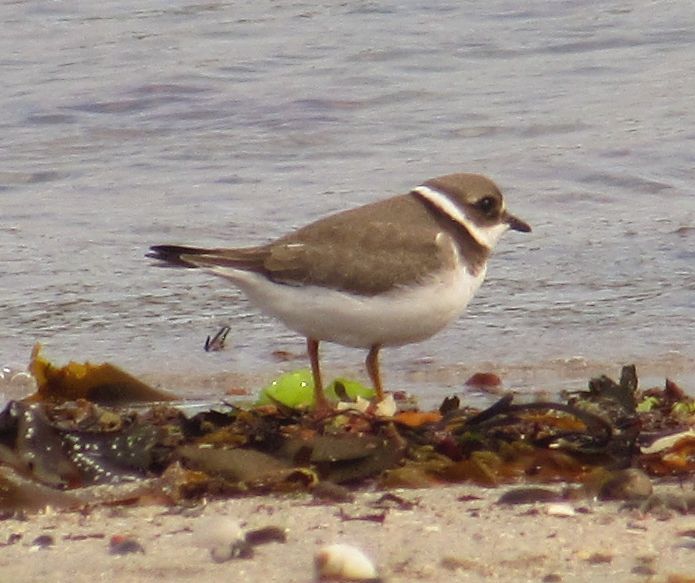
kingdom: Animalia
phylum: Chordata
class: Aves
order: Charadriiformes
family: Charadriidae
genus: Charadrius
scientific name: Charadrius hiaticula
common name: Common ringed plover
